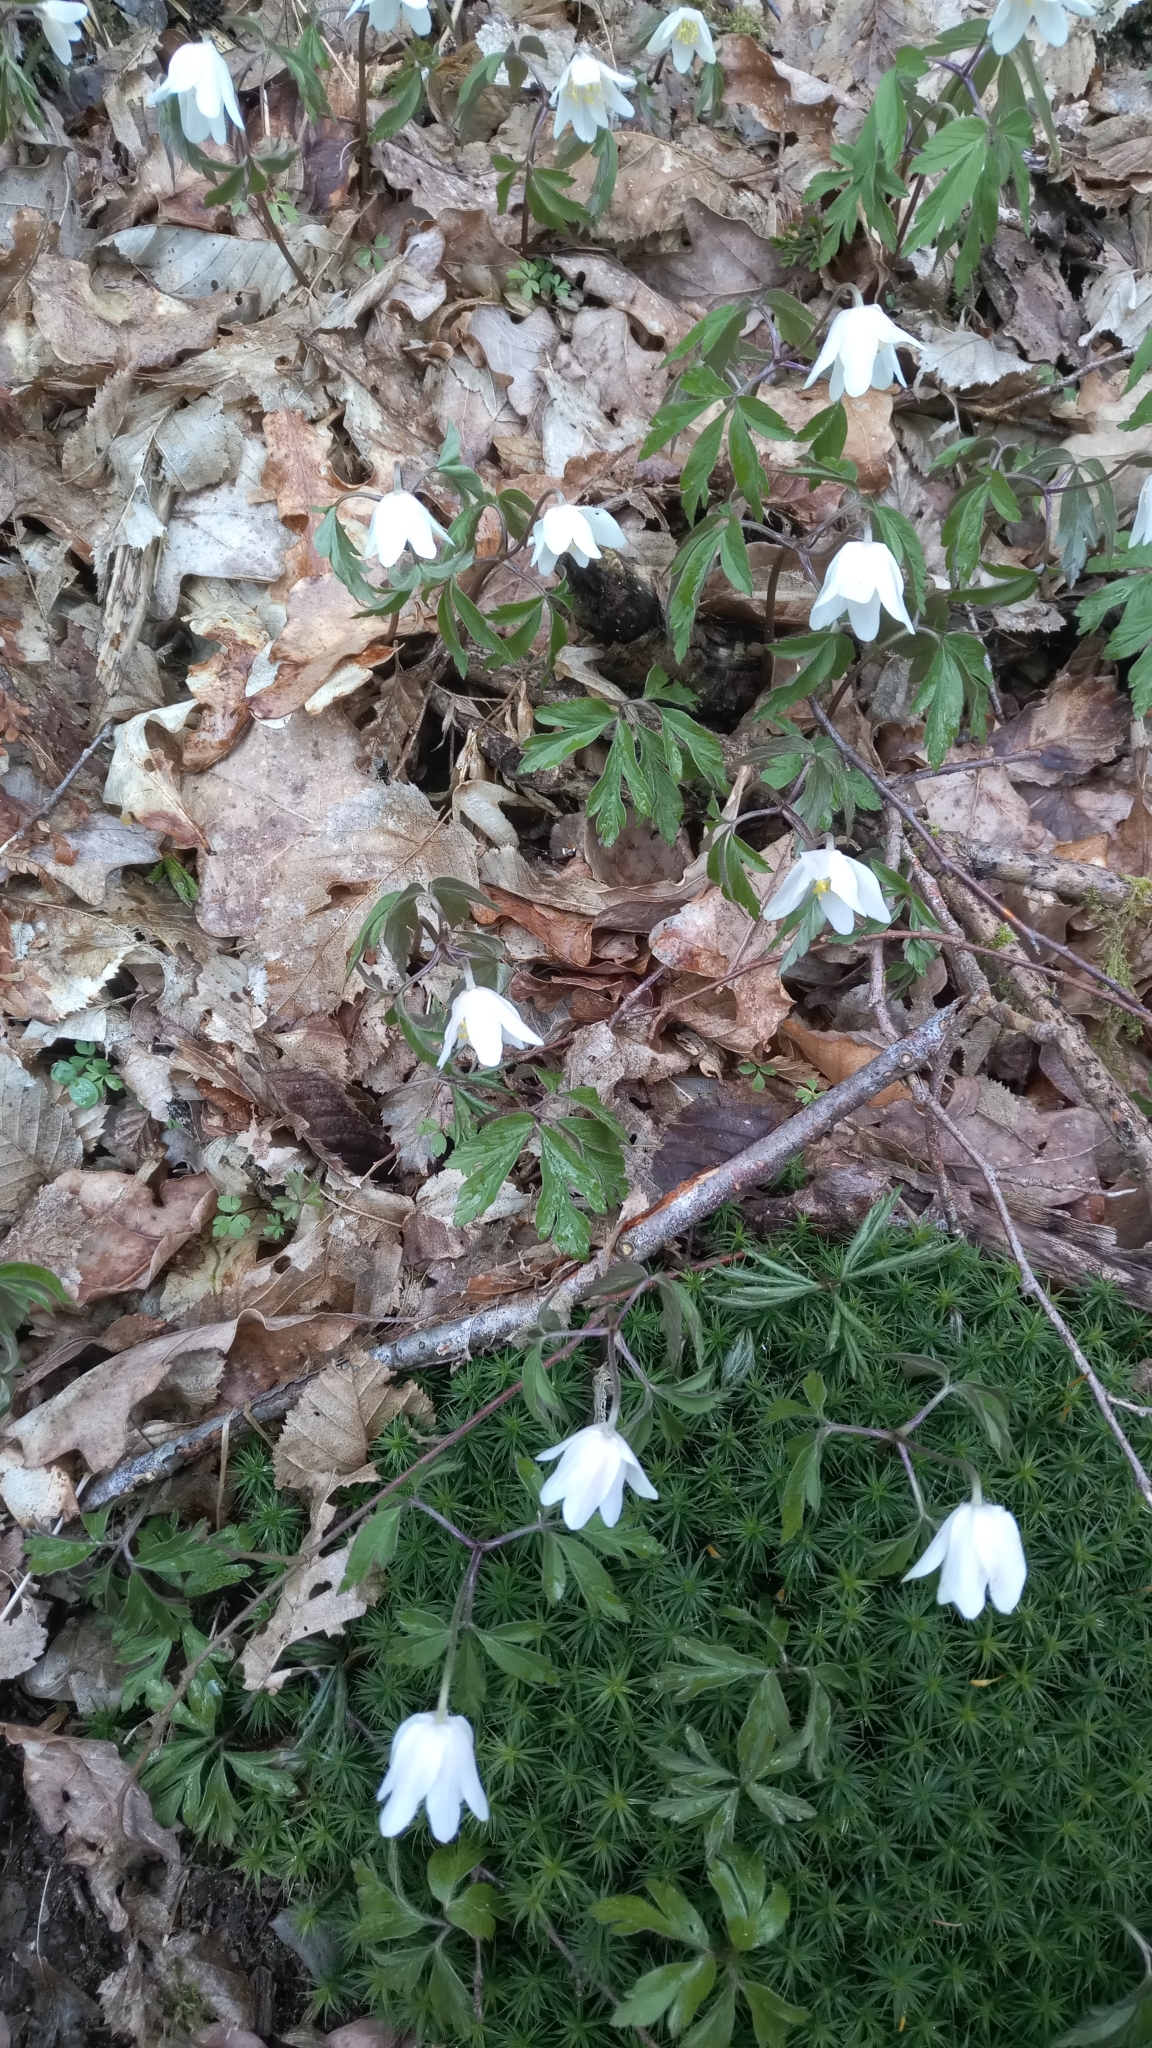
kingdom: Plantae
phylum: Tracheophyta
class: Magnoliopsida
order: Ranunculales
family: Ranunculaceae
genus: Anemone
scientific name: Anemone nemorosa
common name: Wood anemone
